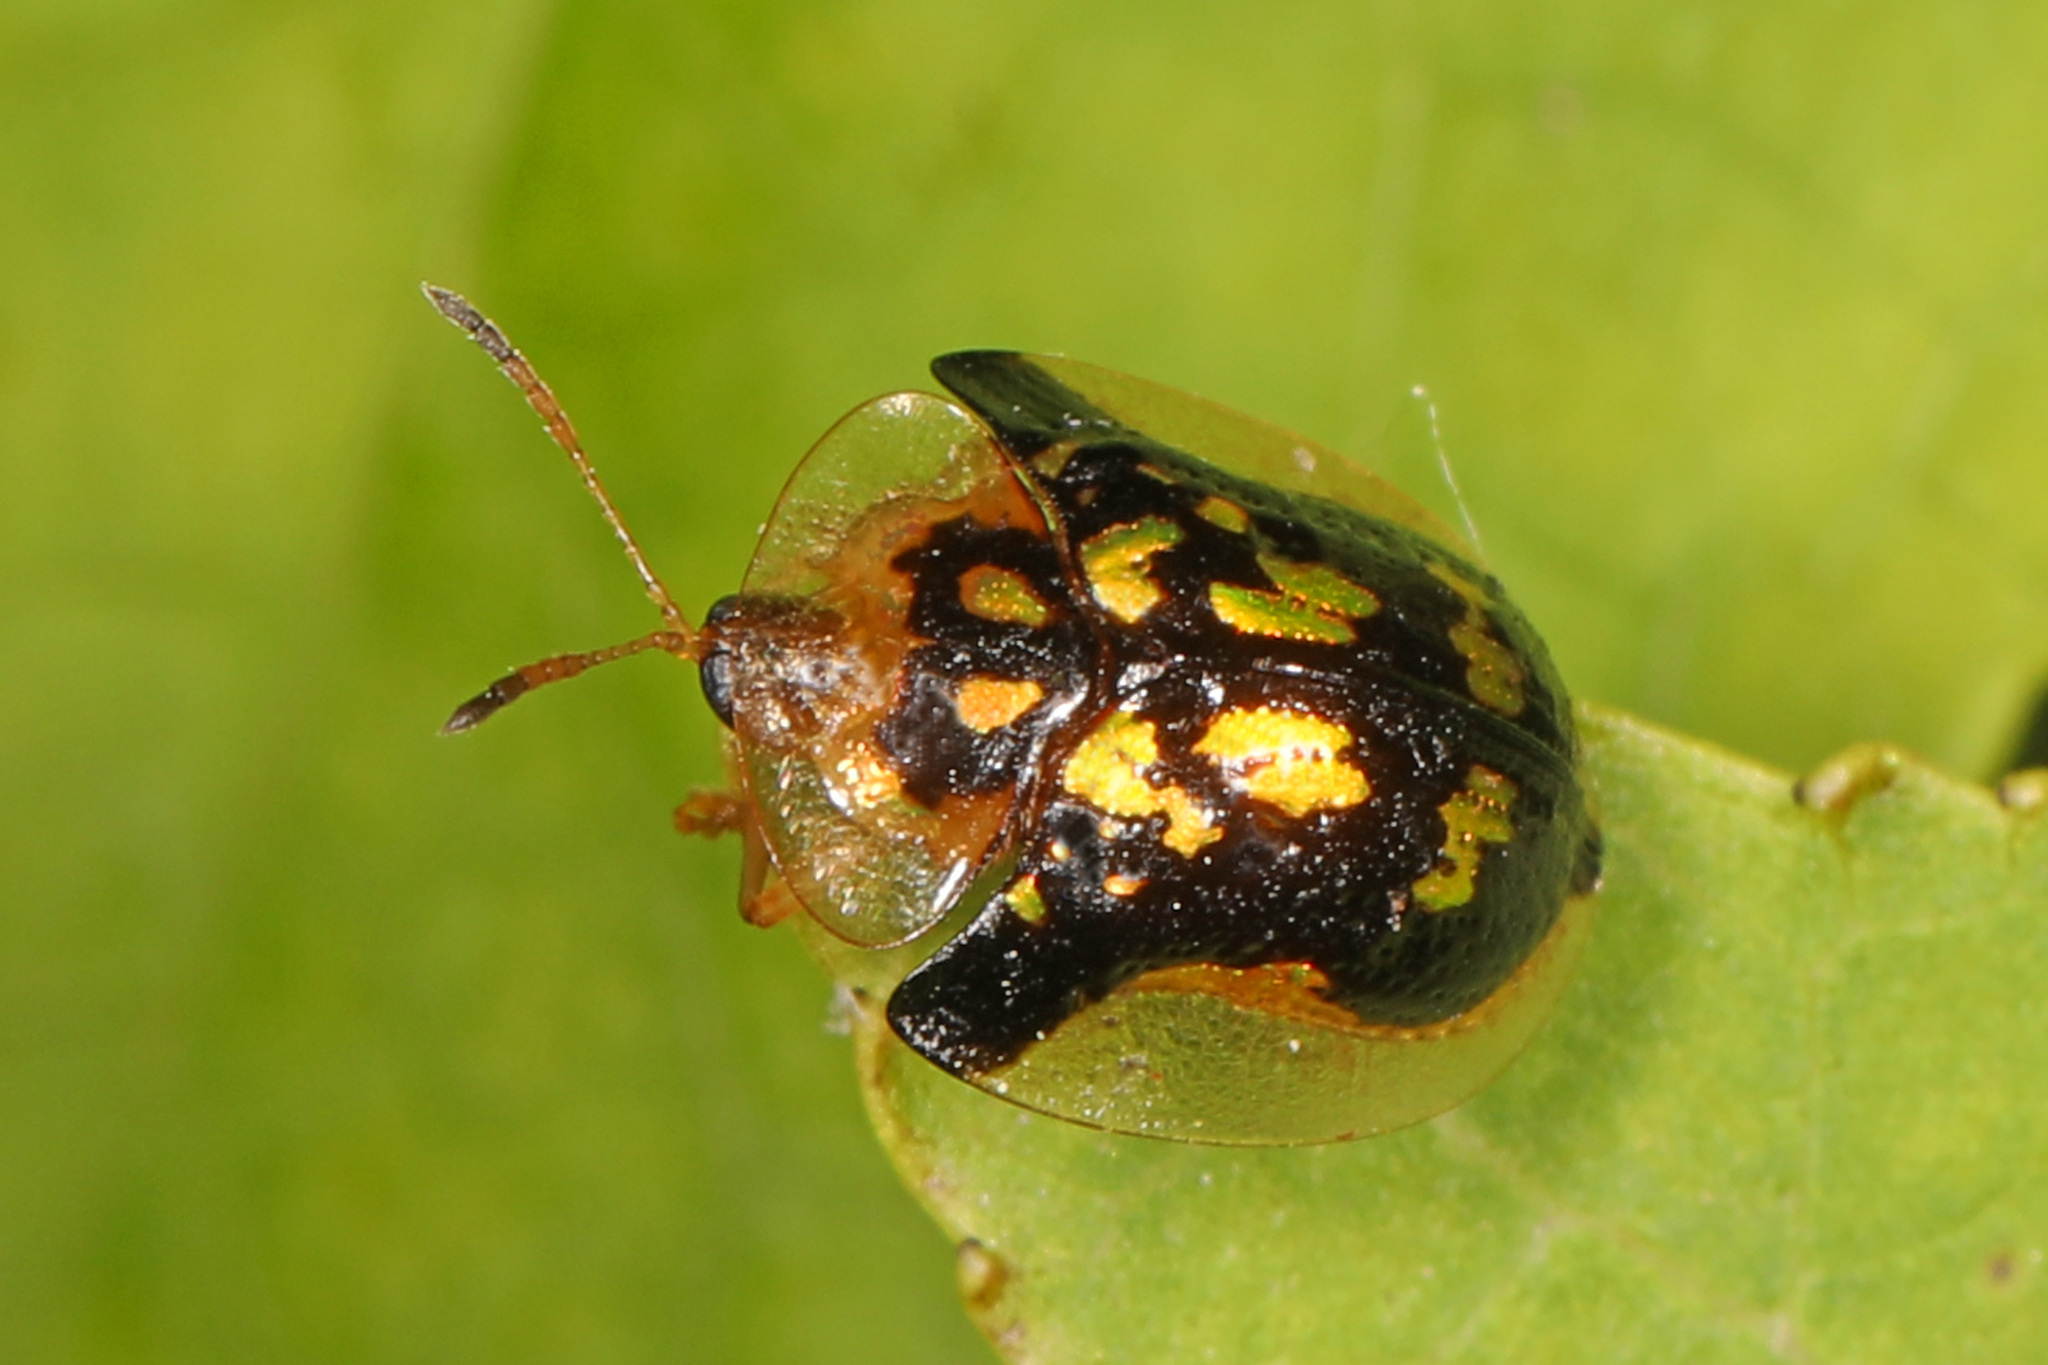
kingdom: Animalia
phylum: Arthropoda
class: Insecta
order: Coleoptera
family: Chrysomelidae
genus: Deloyala
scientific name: Deloyala guttata
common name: Mottled tortoise beetle
